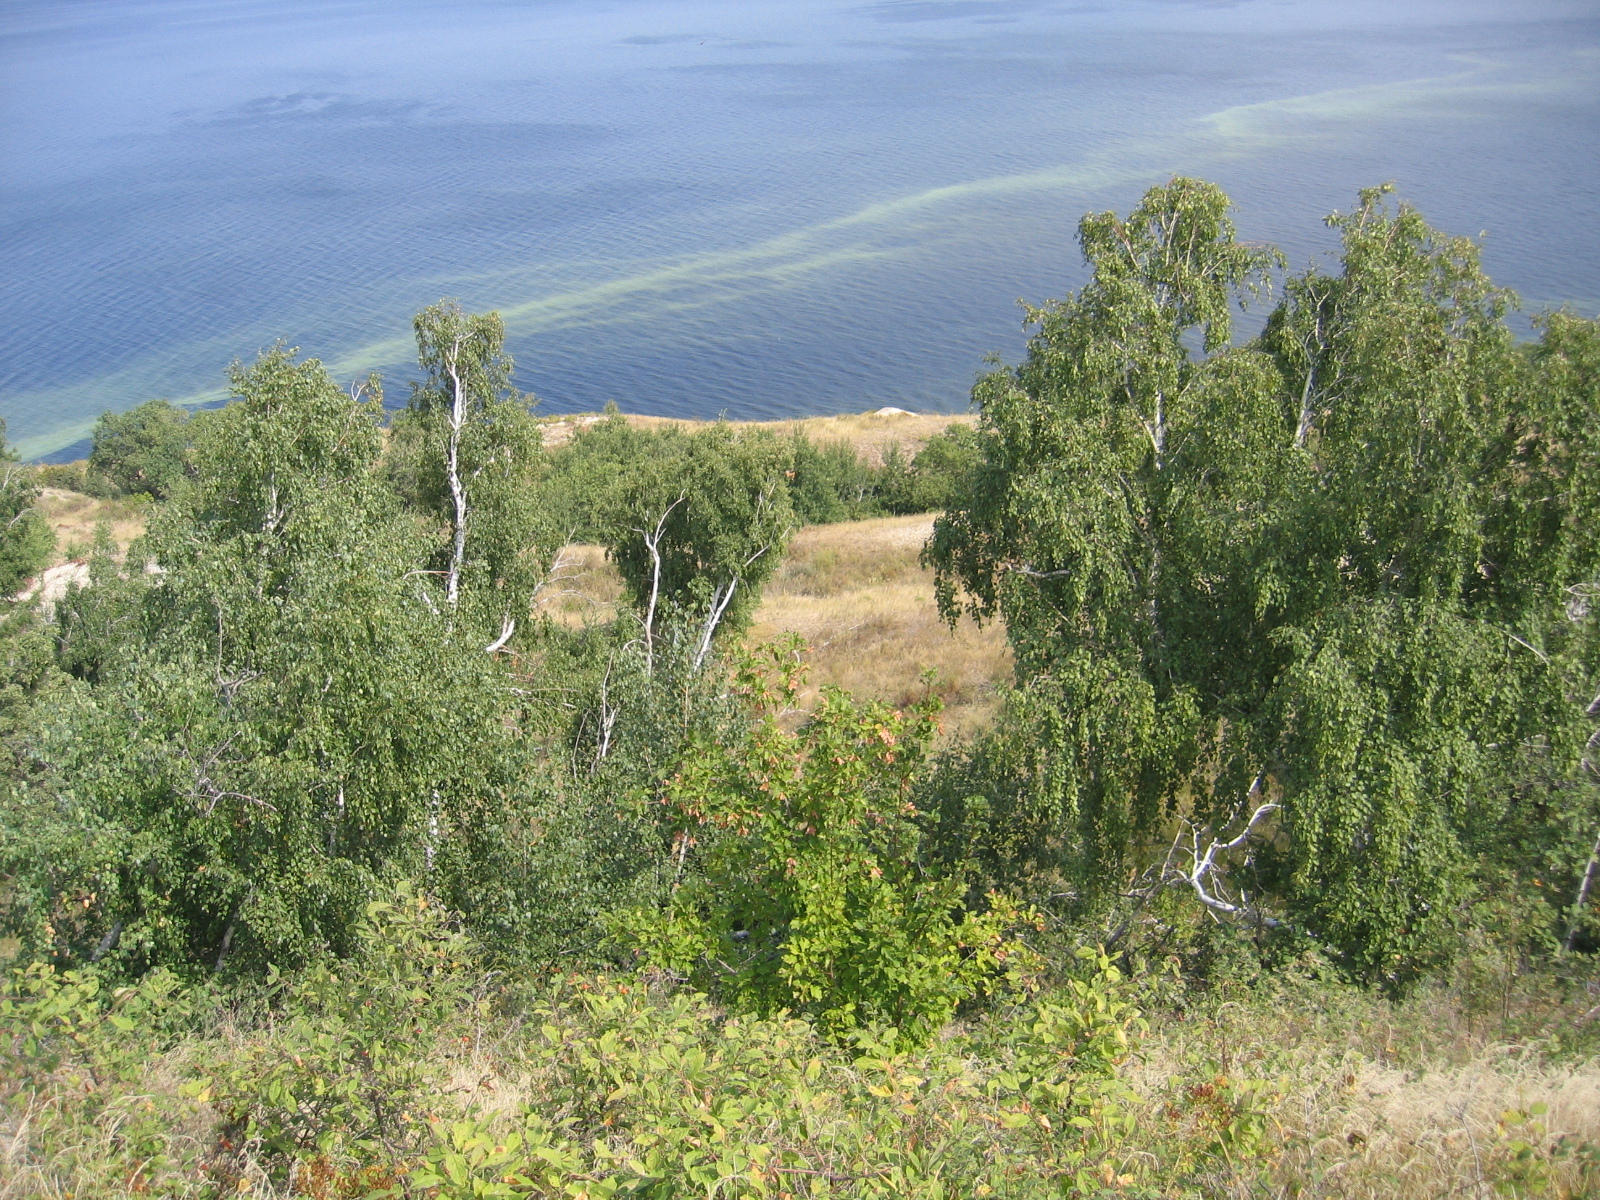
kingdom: Plantae
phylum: Tracheophyta
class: Magnoliopsida
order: Fagales
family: Betulaceae
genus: Betula
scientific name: Betula pendula
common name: Silver birch
